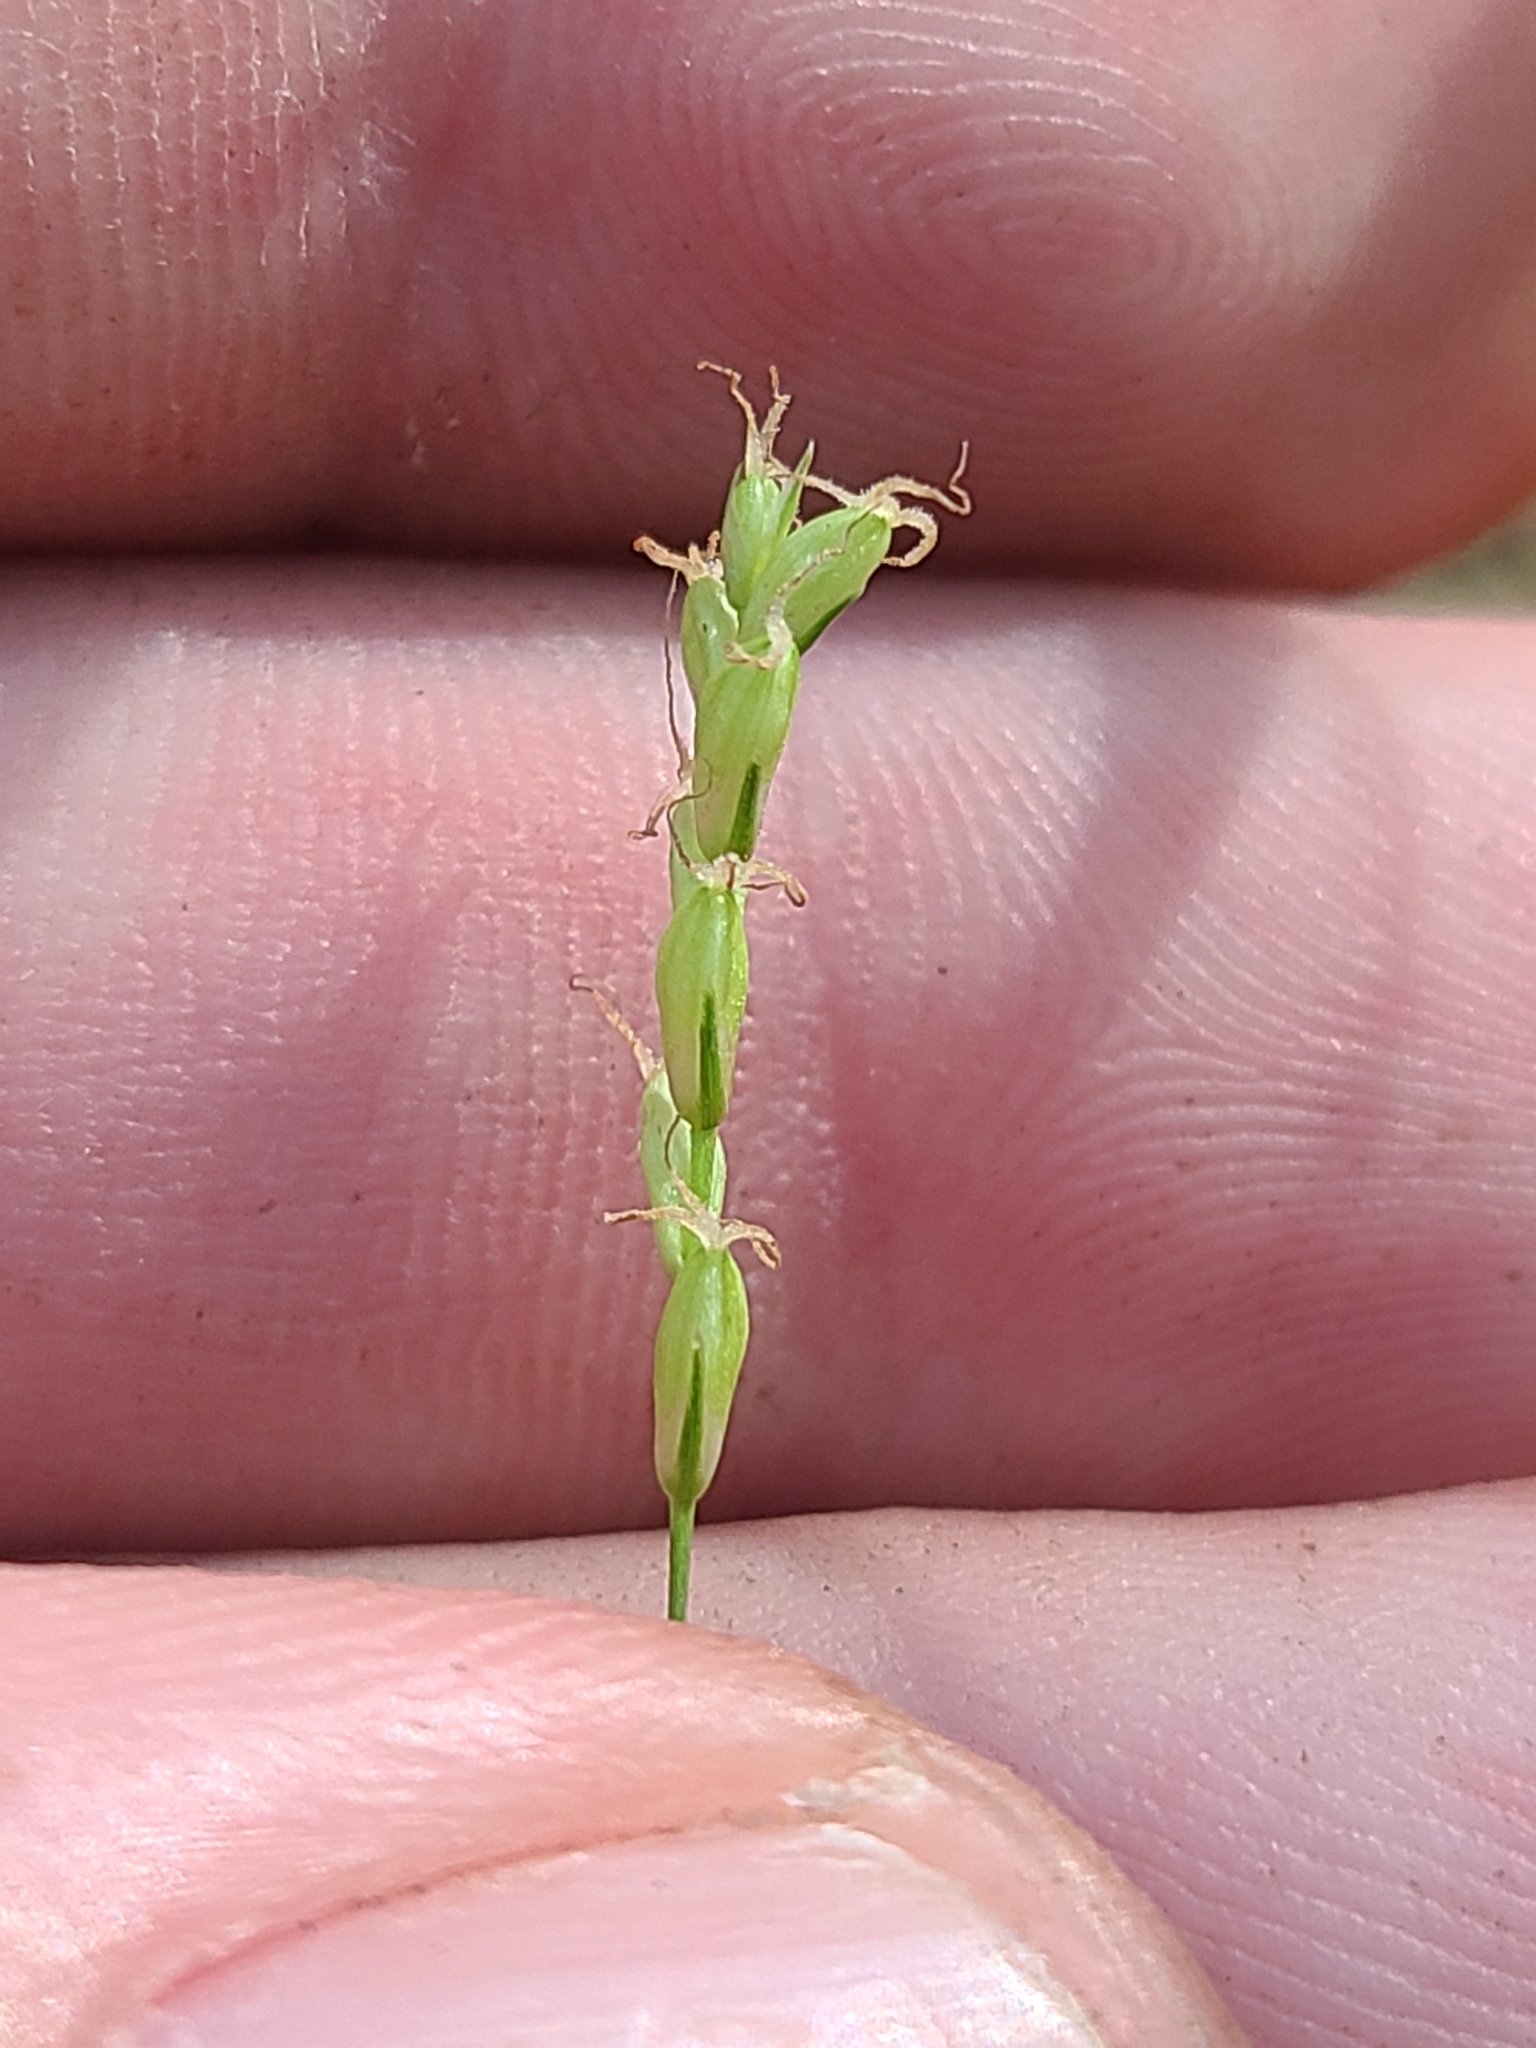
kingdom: Plantae
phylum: Tracheophyta
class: Liliopsida
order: Poales
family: Cyperaceae
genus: Carex
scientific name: Carex digitalis
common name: Slender wood sedge
